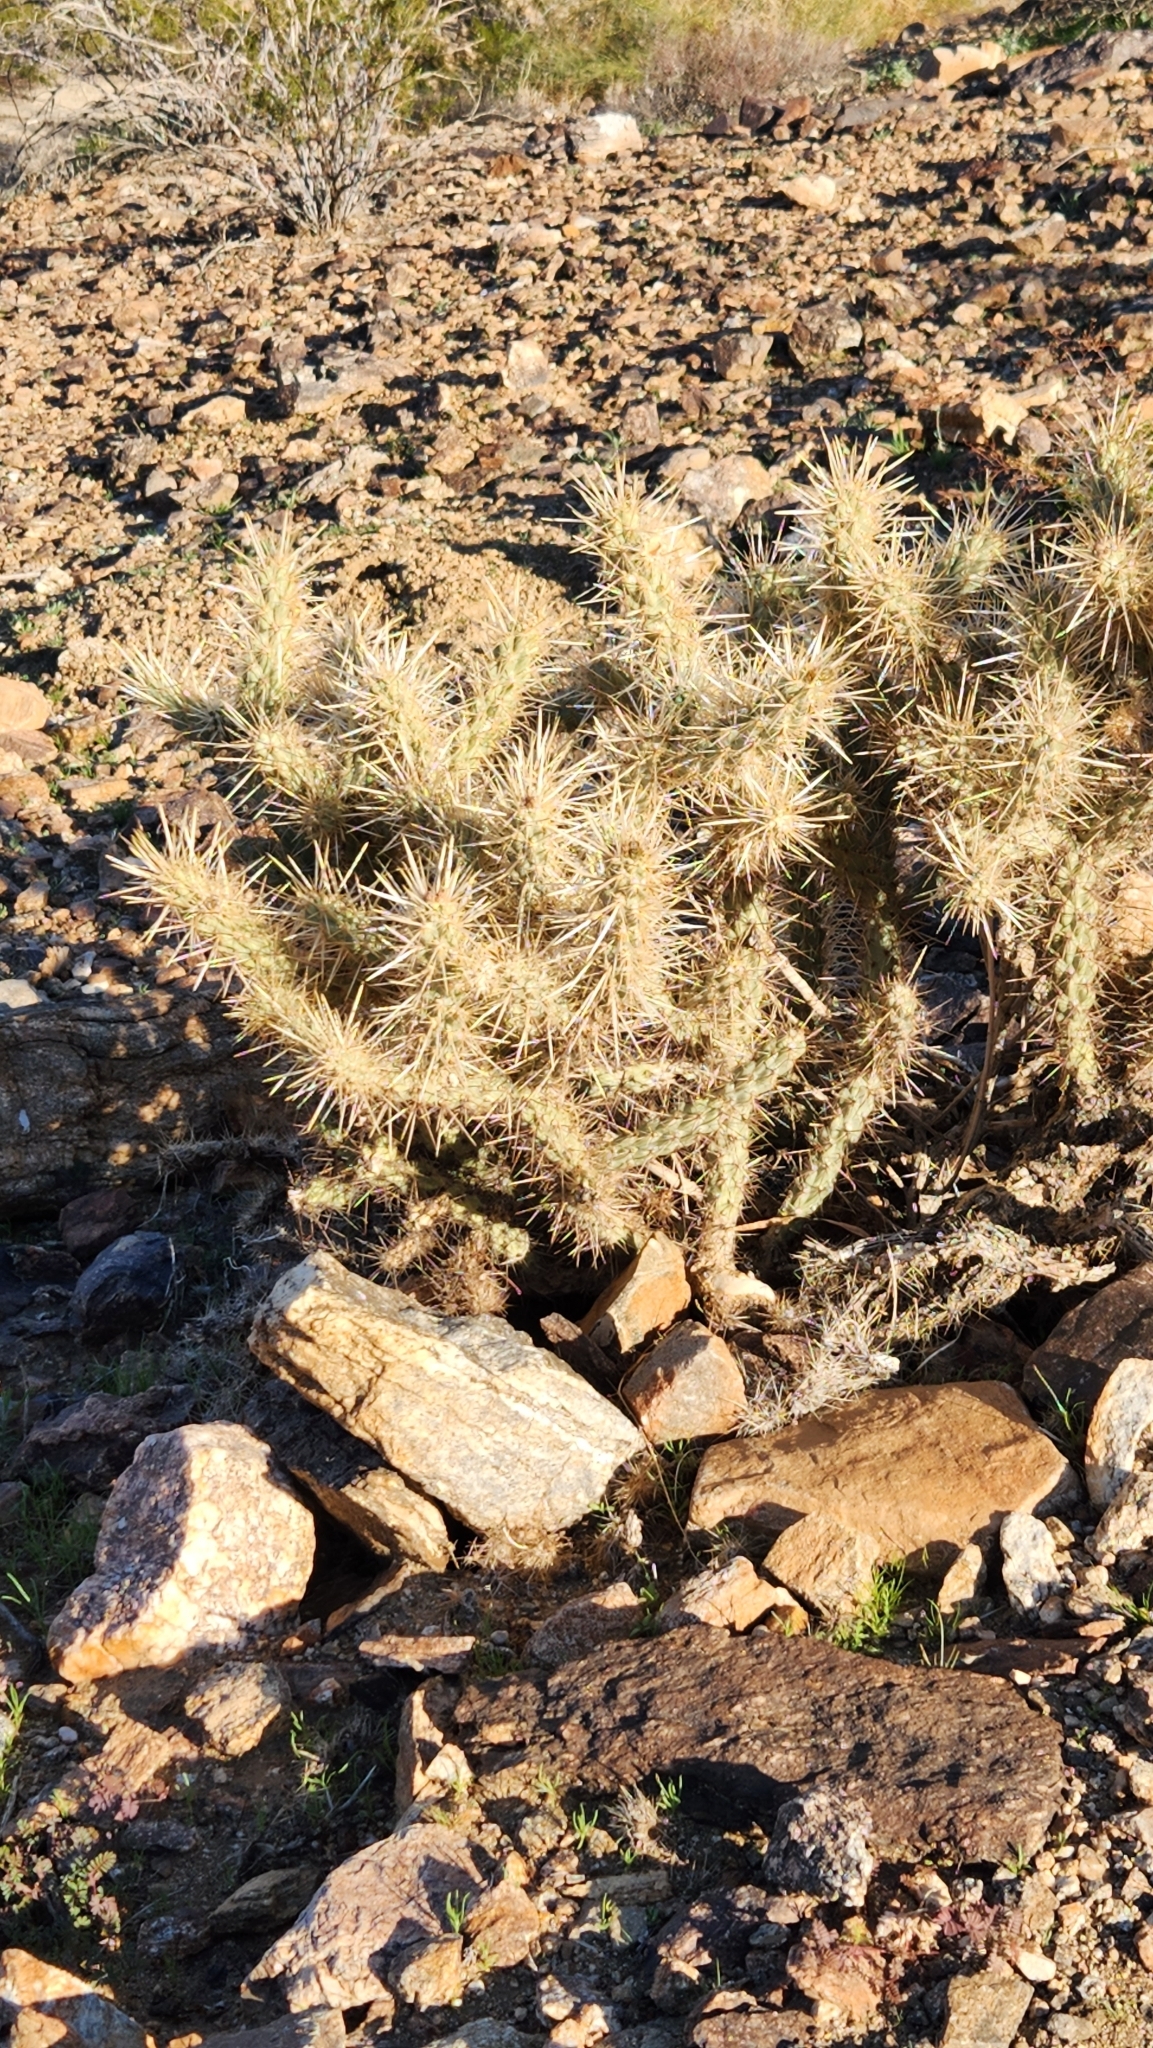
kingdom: Plantae
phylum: Tracheophyta
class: Magnoliopsida
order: Caryophyllales
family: Cactaceae
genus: Cylindropuntia
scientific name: Cylindropuntia echinocarpa
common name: Ground cholla
